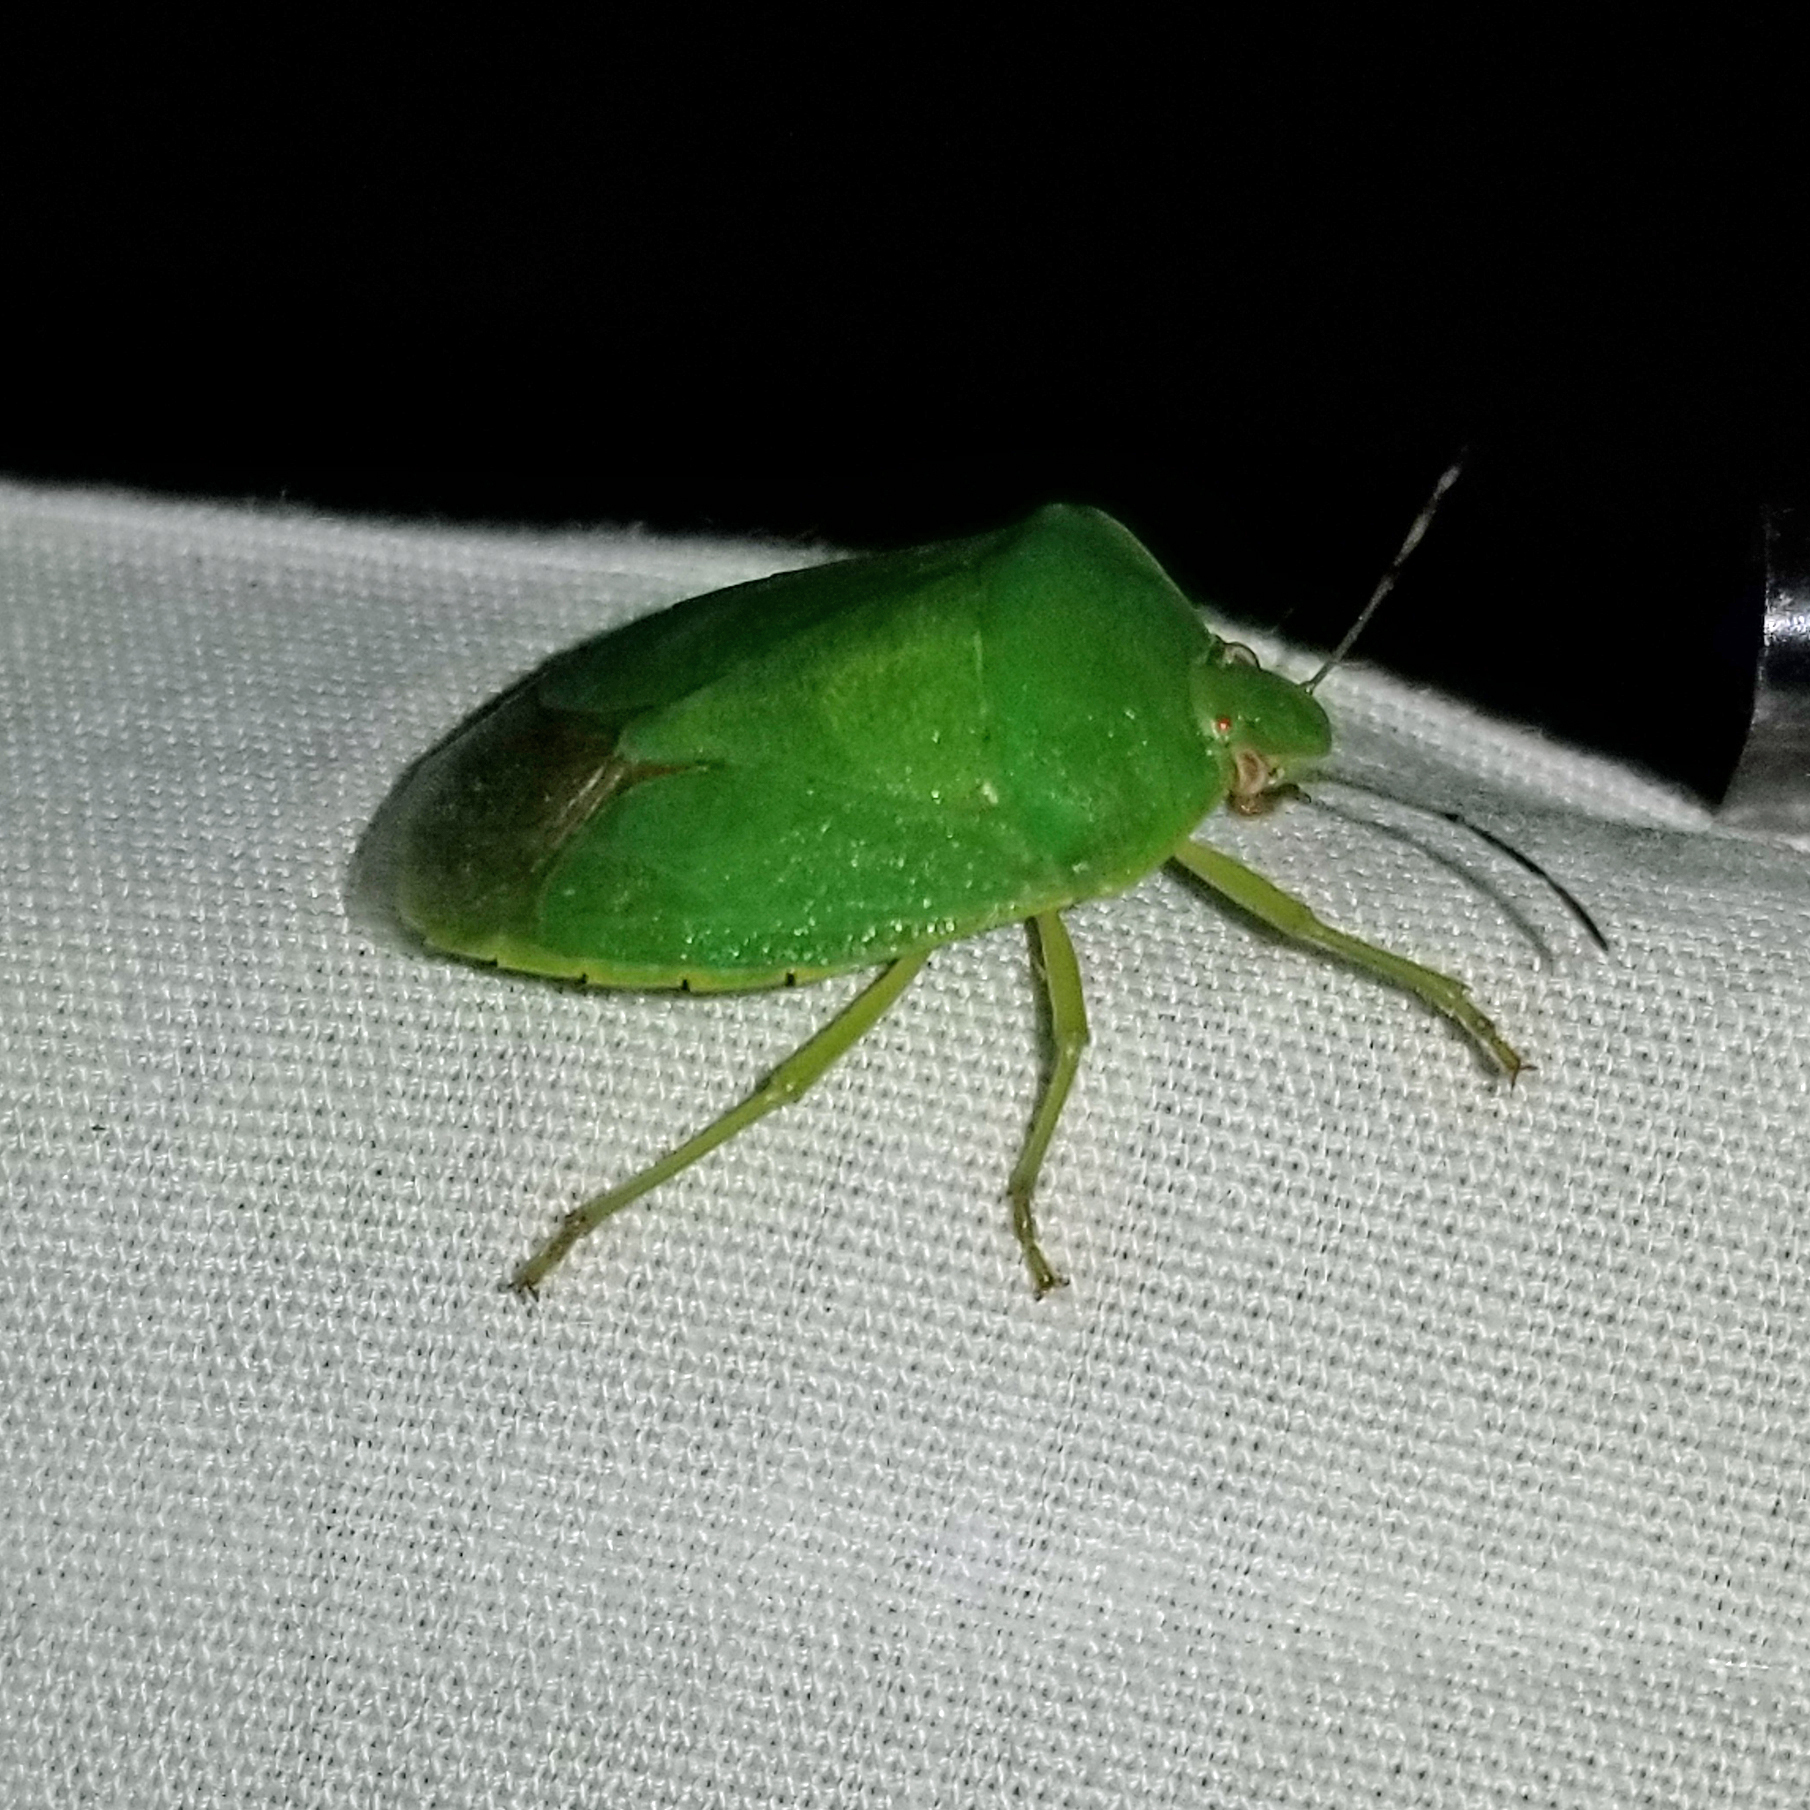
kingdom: Animalia
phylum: Arthropoda
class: Insecta
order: Hemiptera
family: Pentatomidae
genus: Chinavia
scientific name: Chinavia hilaris
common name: Green stink bug
